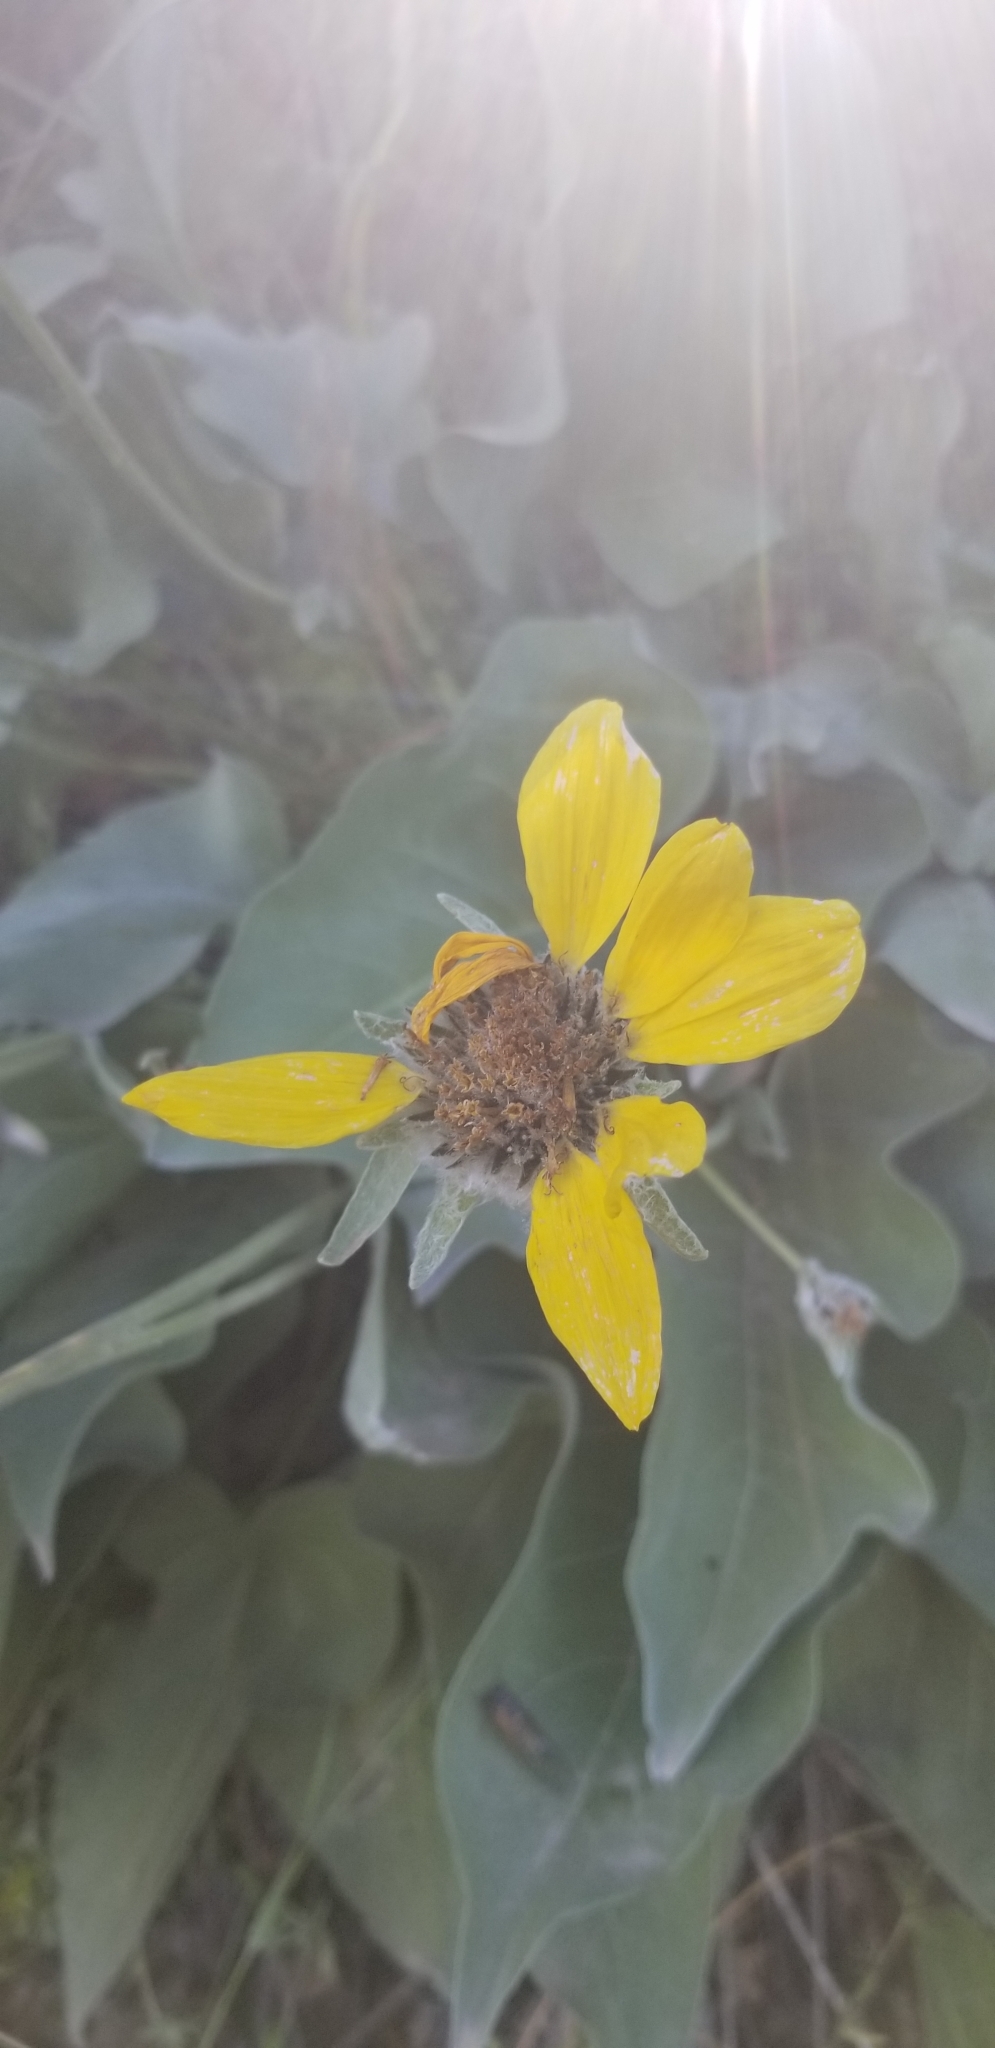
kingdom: Plantae
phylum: Tracheophyta
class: Magnoliopsida
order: Asterales
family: Asteraceae
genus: Wyethia
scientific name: Wyethia sagittata
